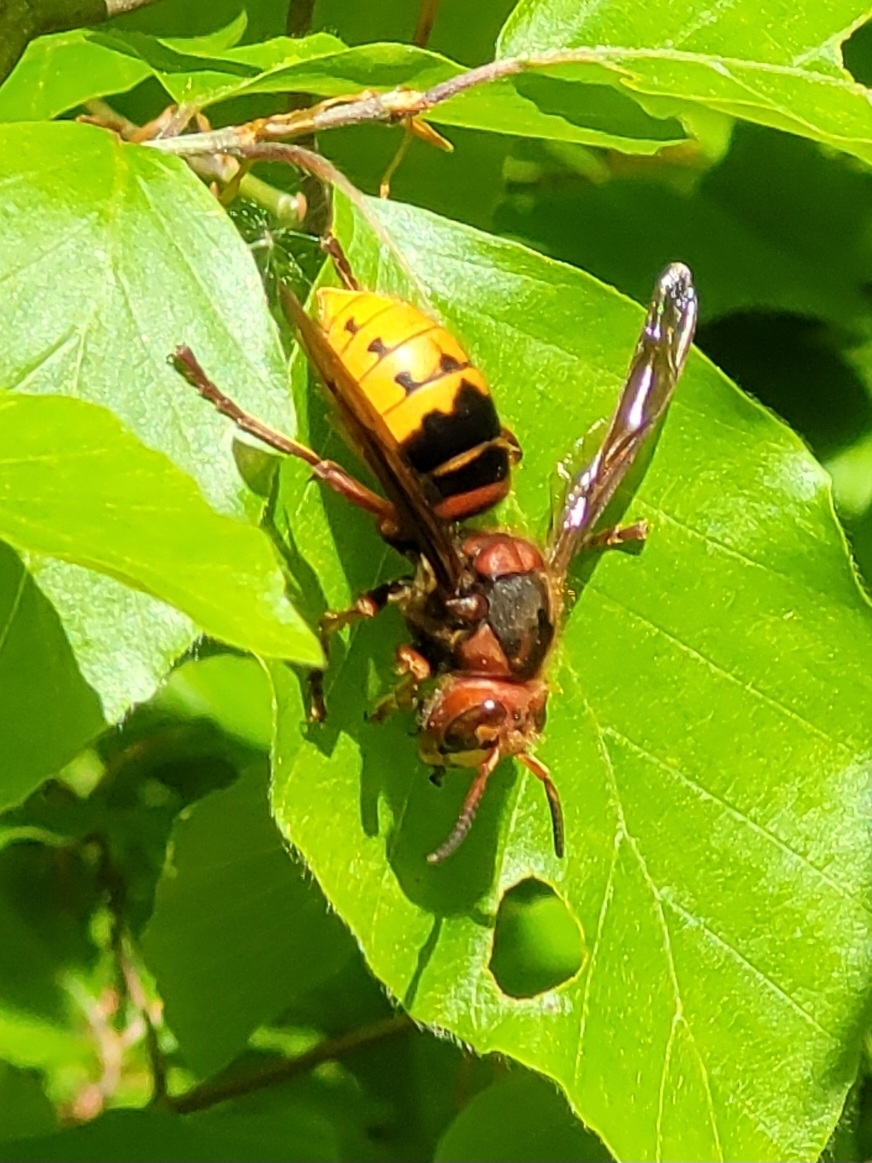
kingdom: Animalia
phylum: Arthropoda
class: Insecta
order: Hymenoptera
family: Vespidae
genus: Vespa
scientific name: Vespa crabro
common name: Hornet
